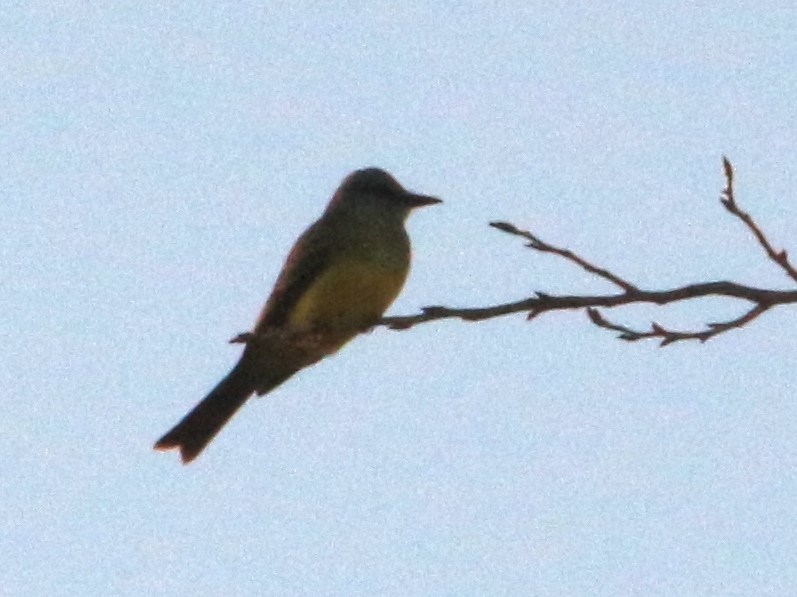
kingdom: Animalia
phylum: Chordata
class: Aves
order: Passeriformes
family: Tyrannidae
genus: Tyrannus
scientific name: Tyrannus melancholicus
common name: Tropical kingbird
